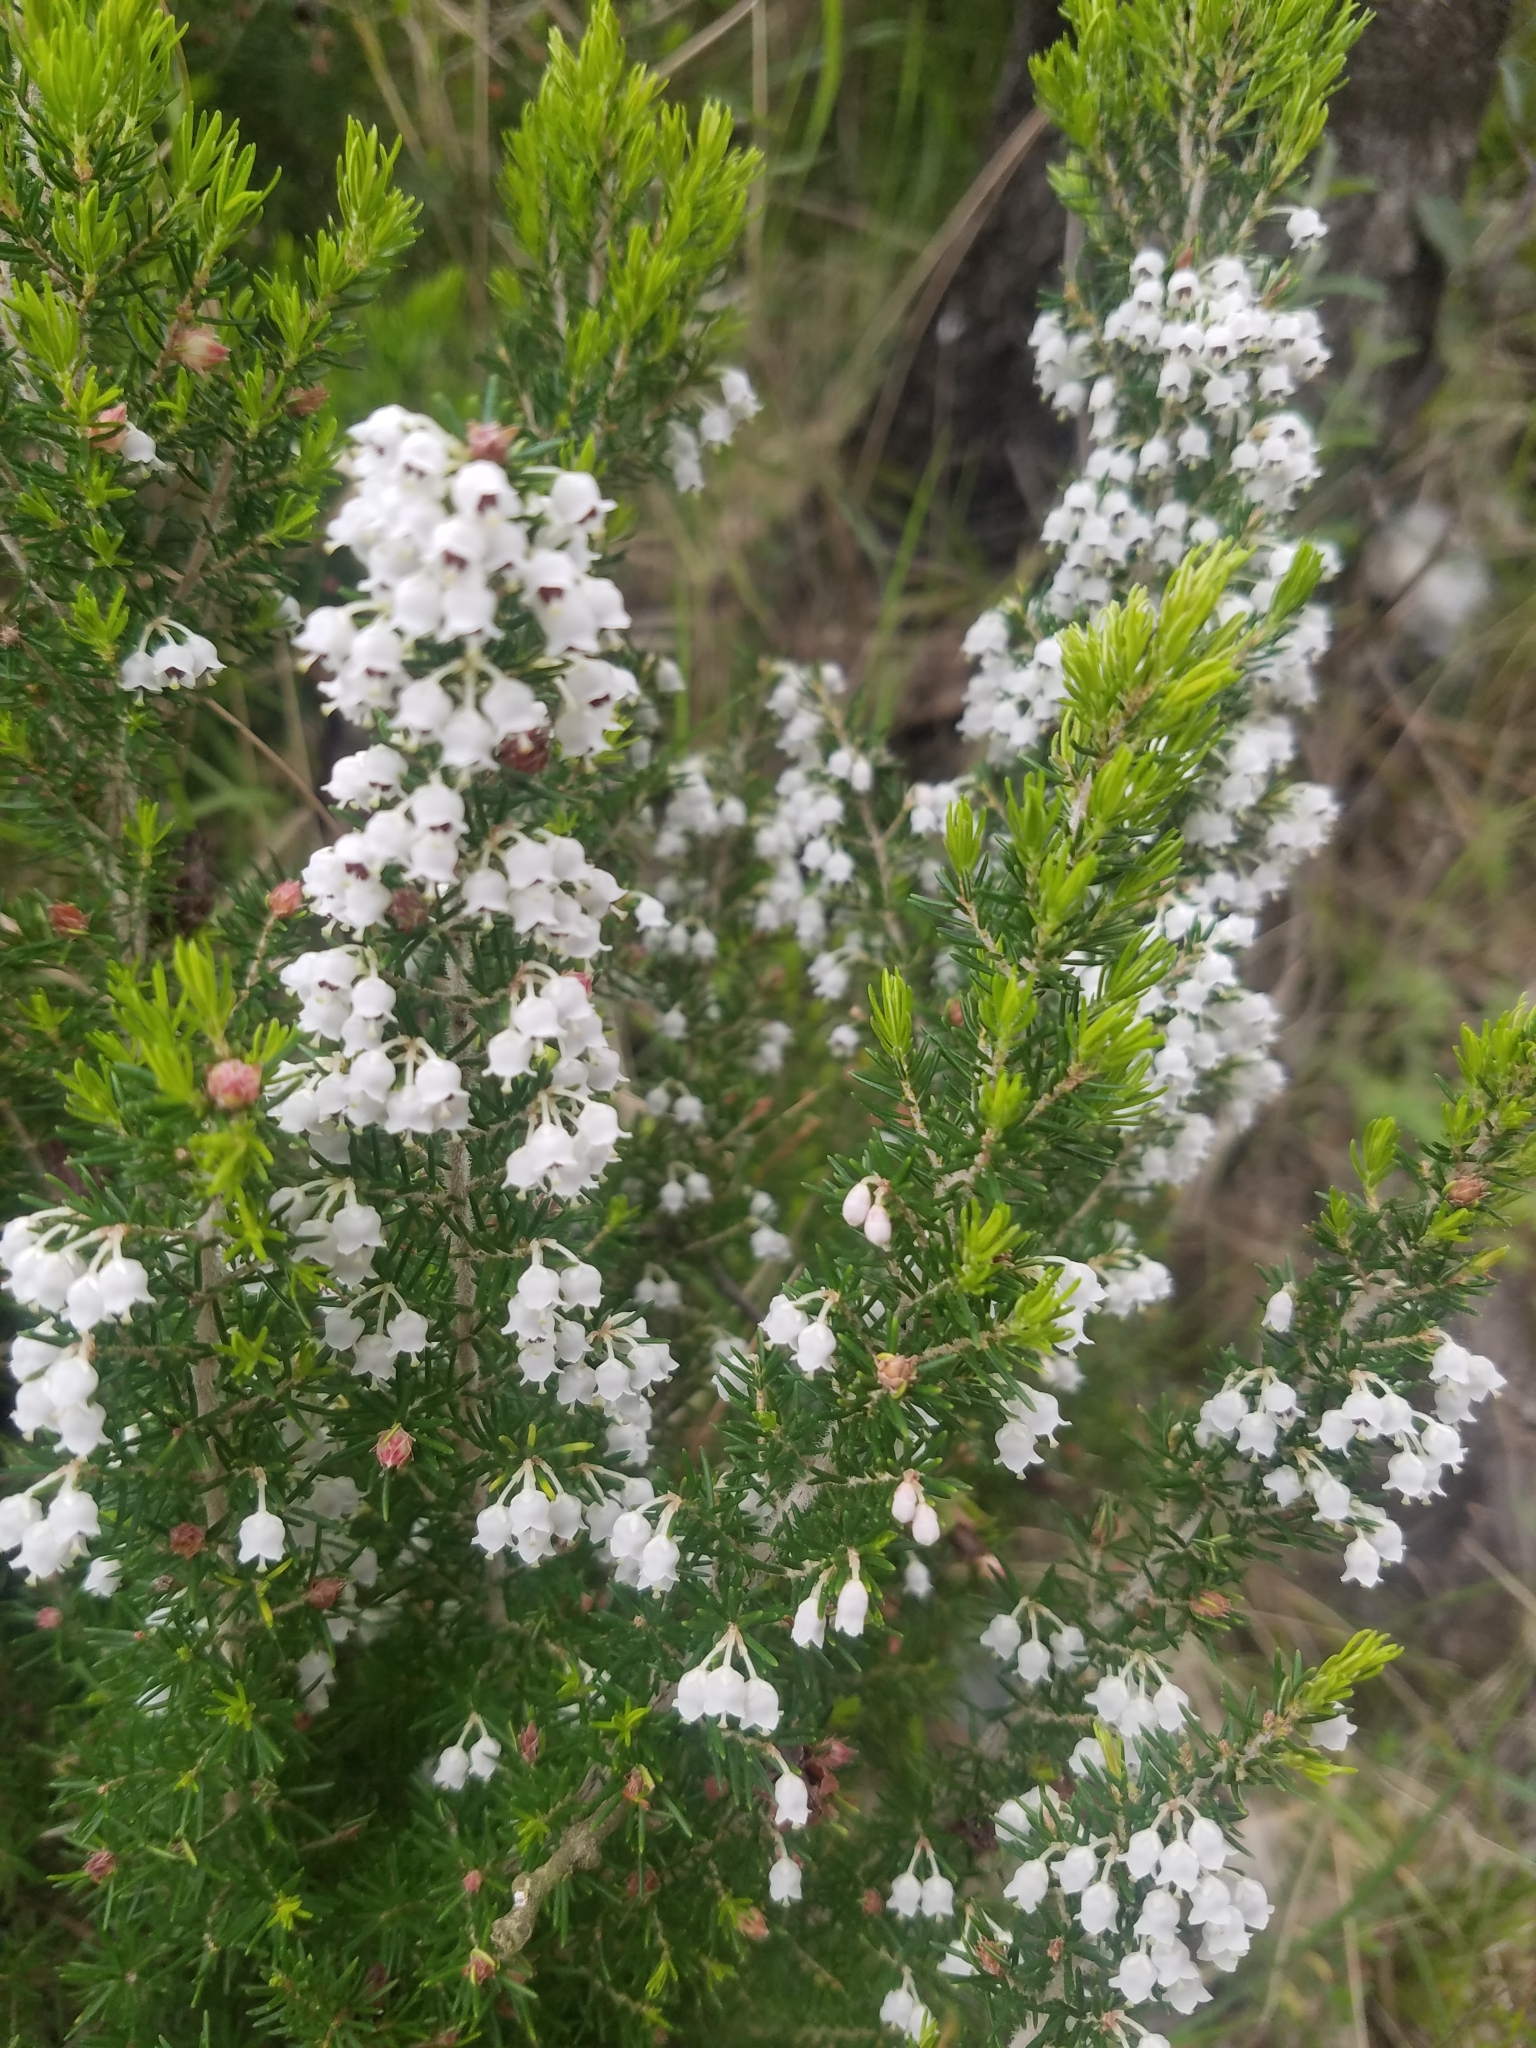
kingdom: Plantae
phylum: Tracheophyta
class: Magnoliopsida
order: Ericales
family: Ericaceae
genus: Erica
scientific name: Erica arborea
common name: Tree heath
